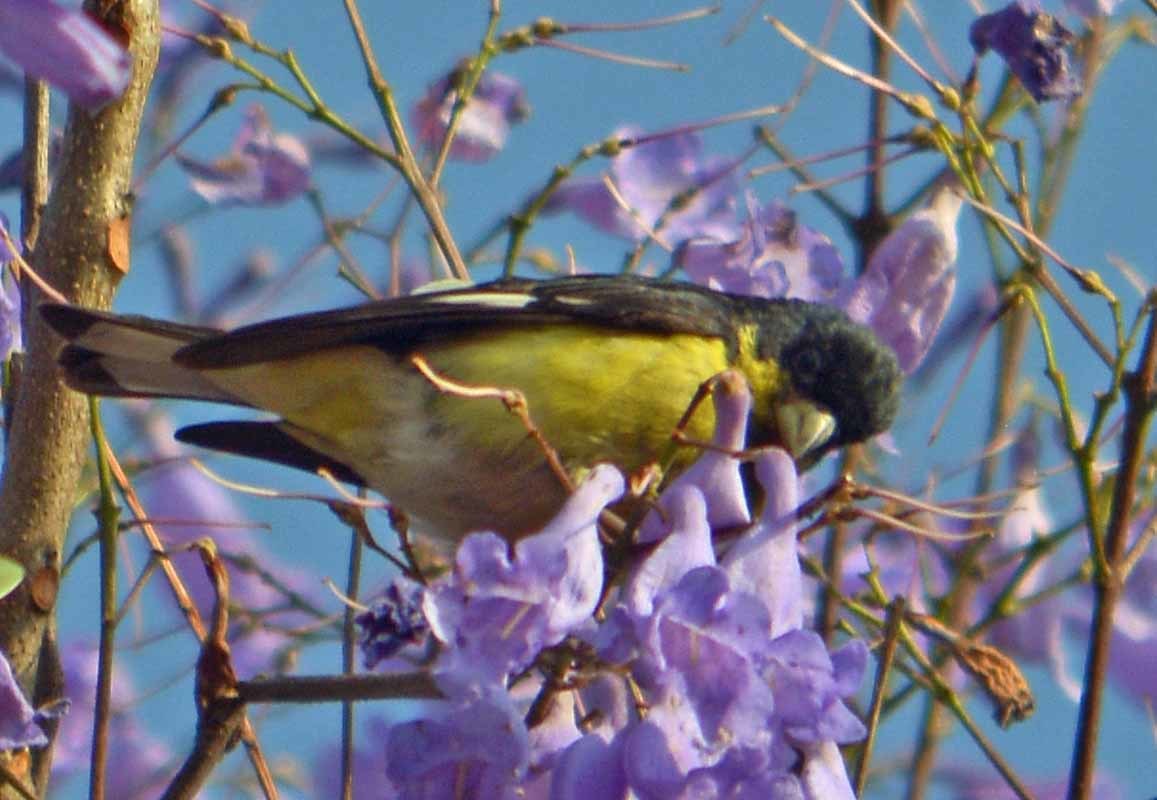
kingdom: Animalia
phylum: Chordata
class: Aves
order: Passeriformes
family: Fringillidae
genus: Spinus
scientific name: Spinus psaltria
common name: Lesser goldfinch
